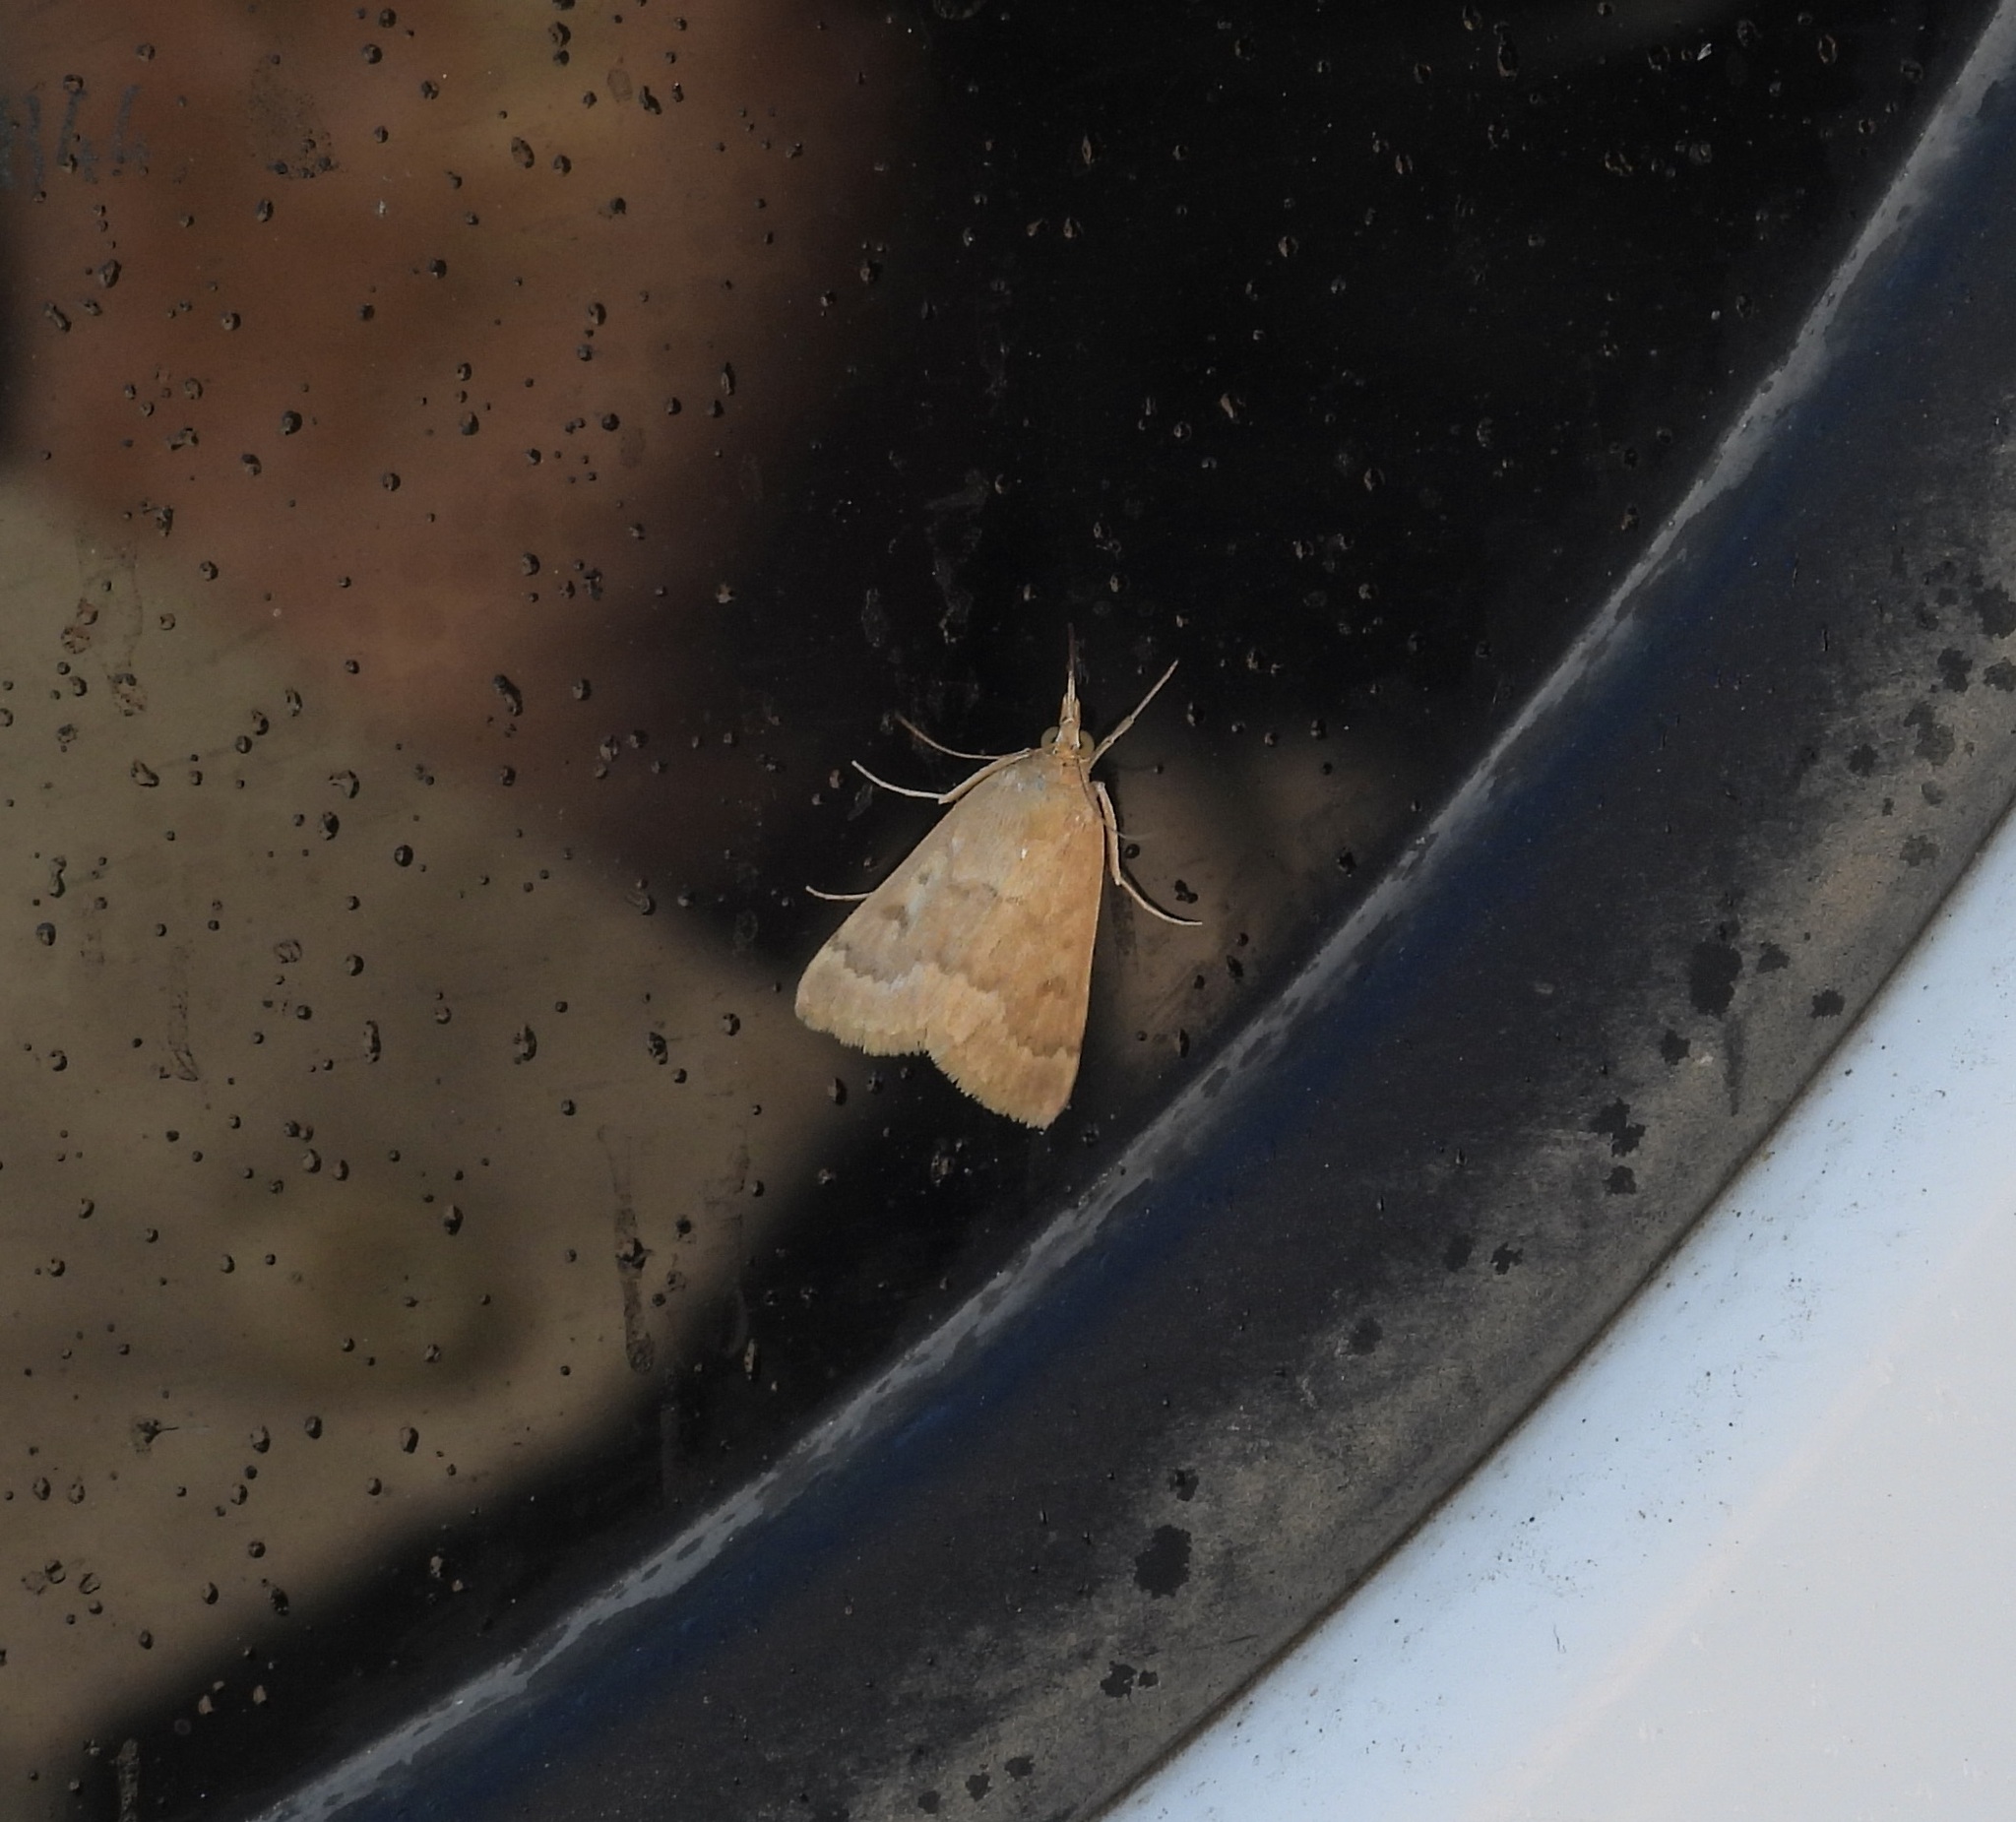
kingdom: Animalia
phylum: Arthropoda
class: Insecta
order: Lepidoptera
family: Crambidae
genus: Achyra
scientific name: Achyra rantalis
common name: Garden webworm
